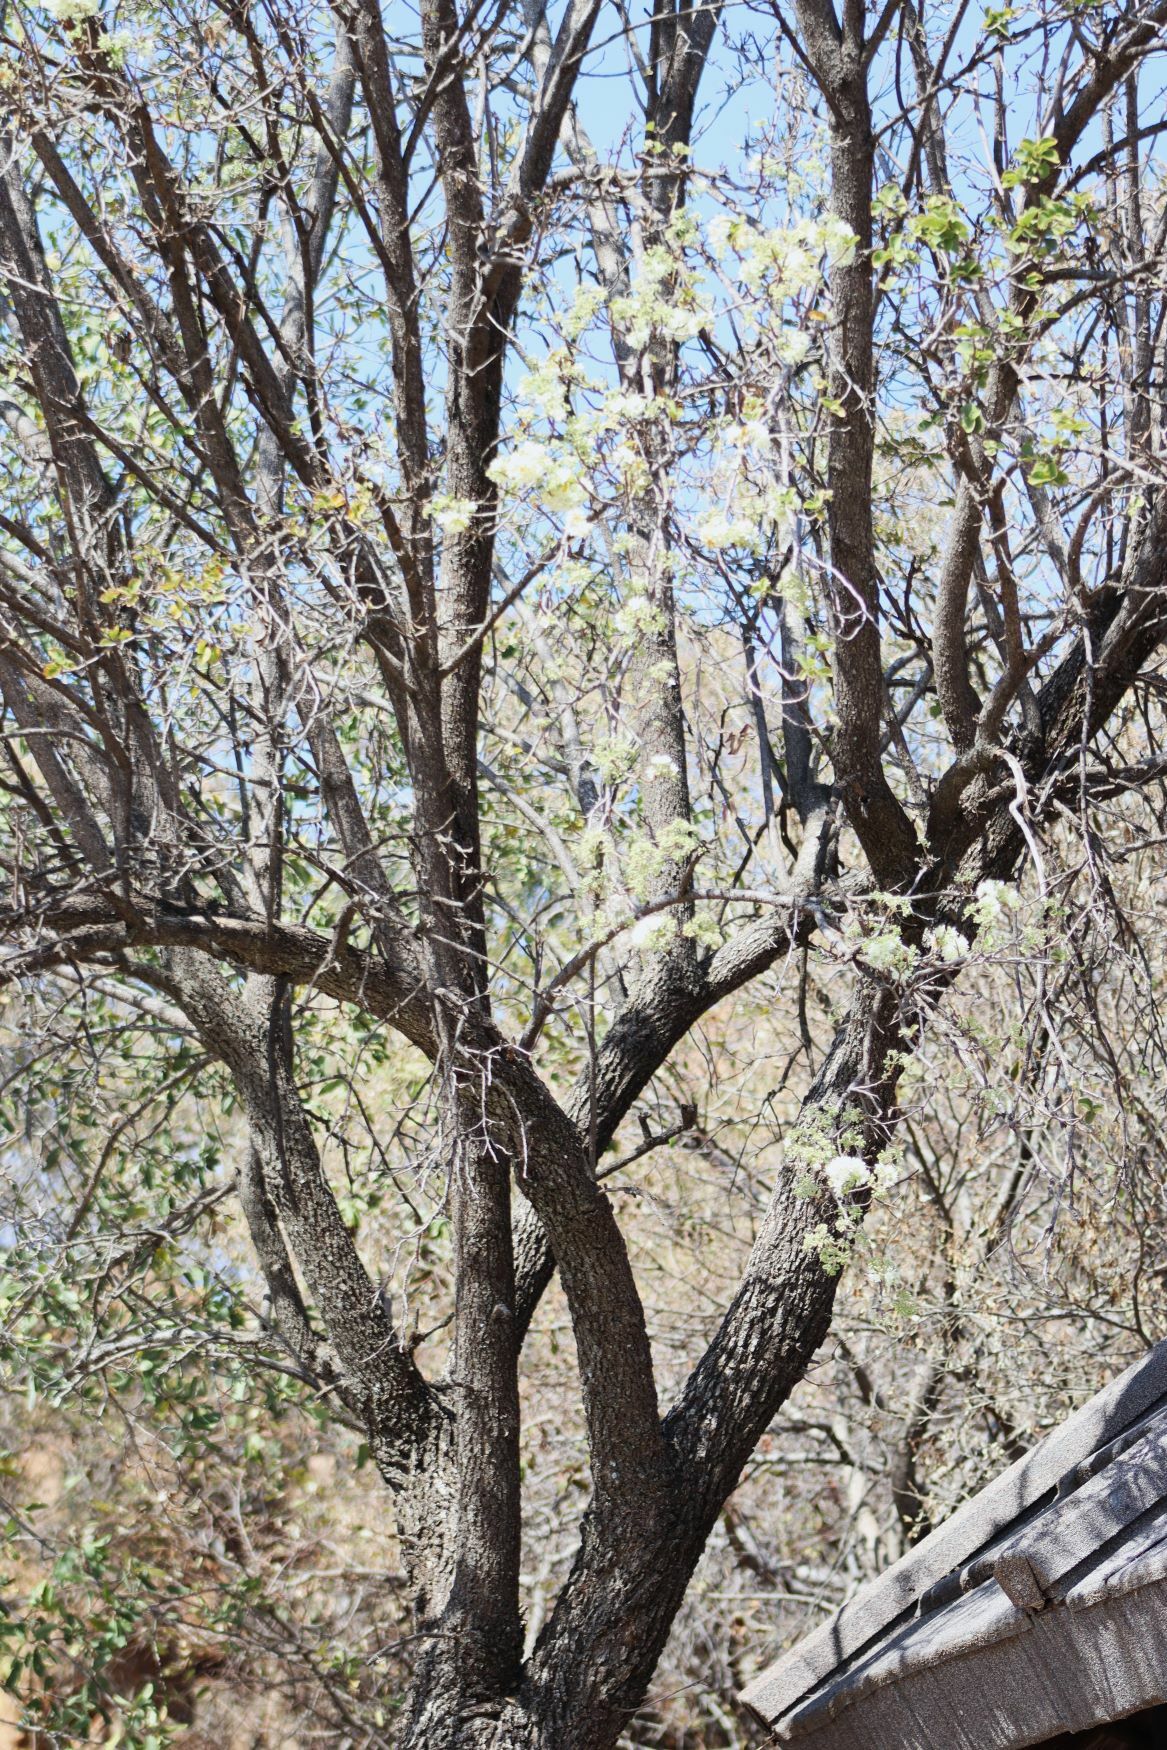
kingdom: Plantae
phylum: Tracheophyta
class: Magnoliopsida
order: Malvales
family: Malvaceae
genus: Dombeya
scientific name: Dombeya rotundifolia
